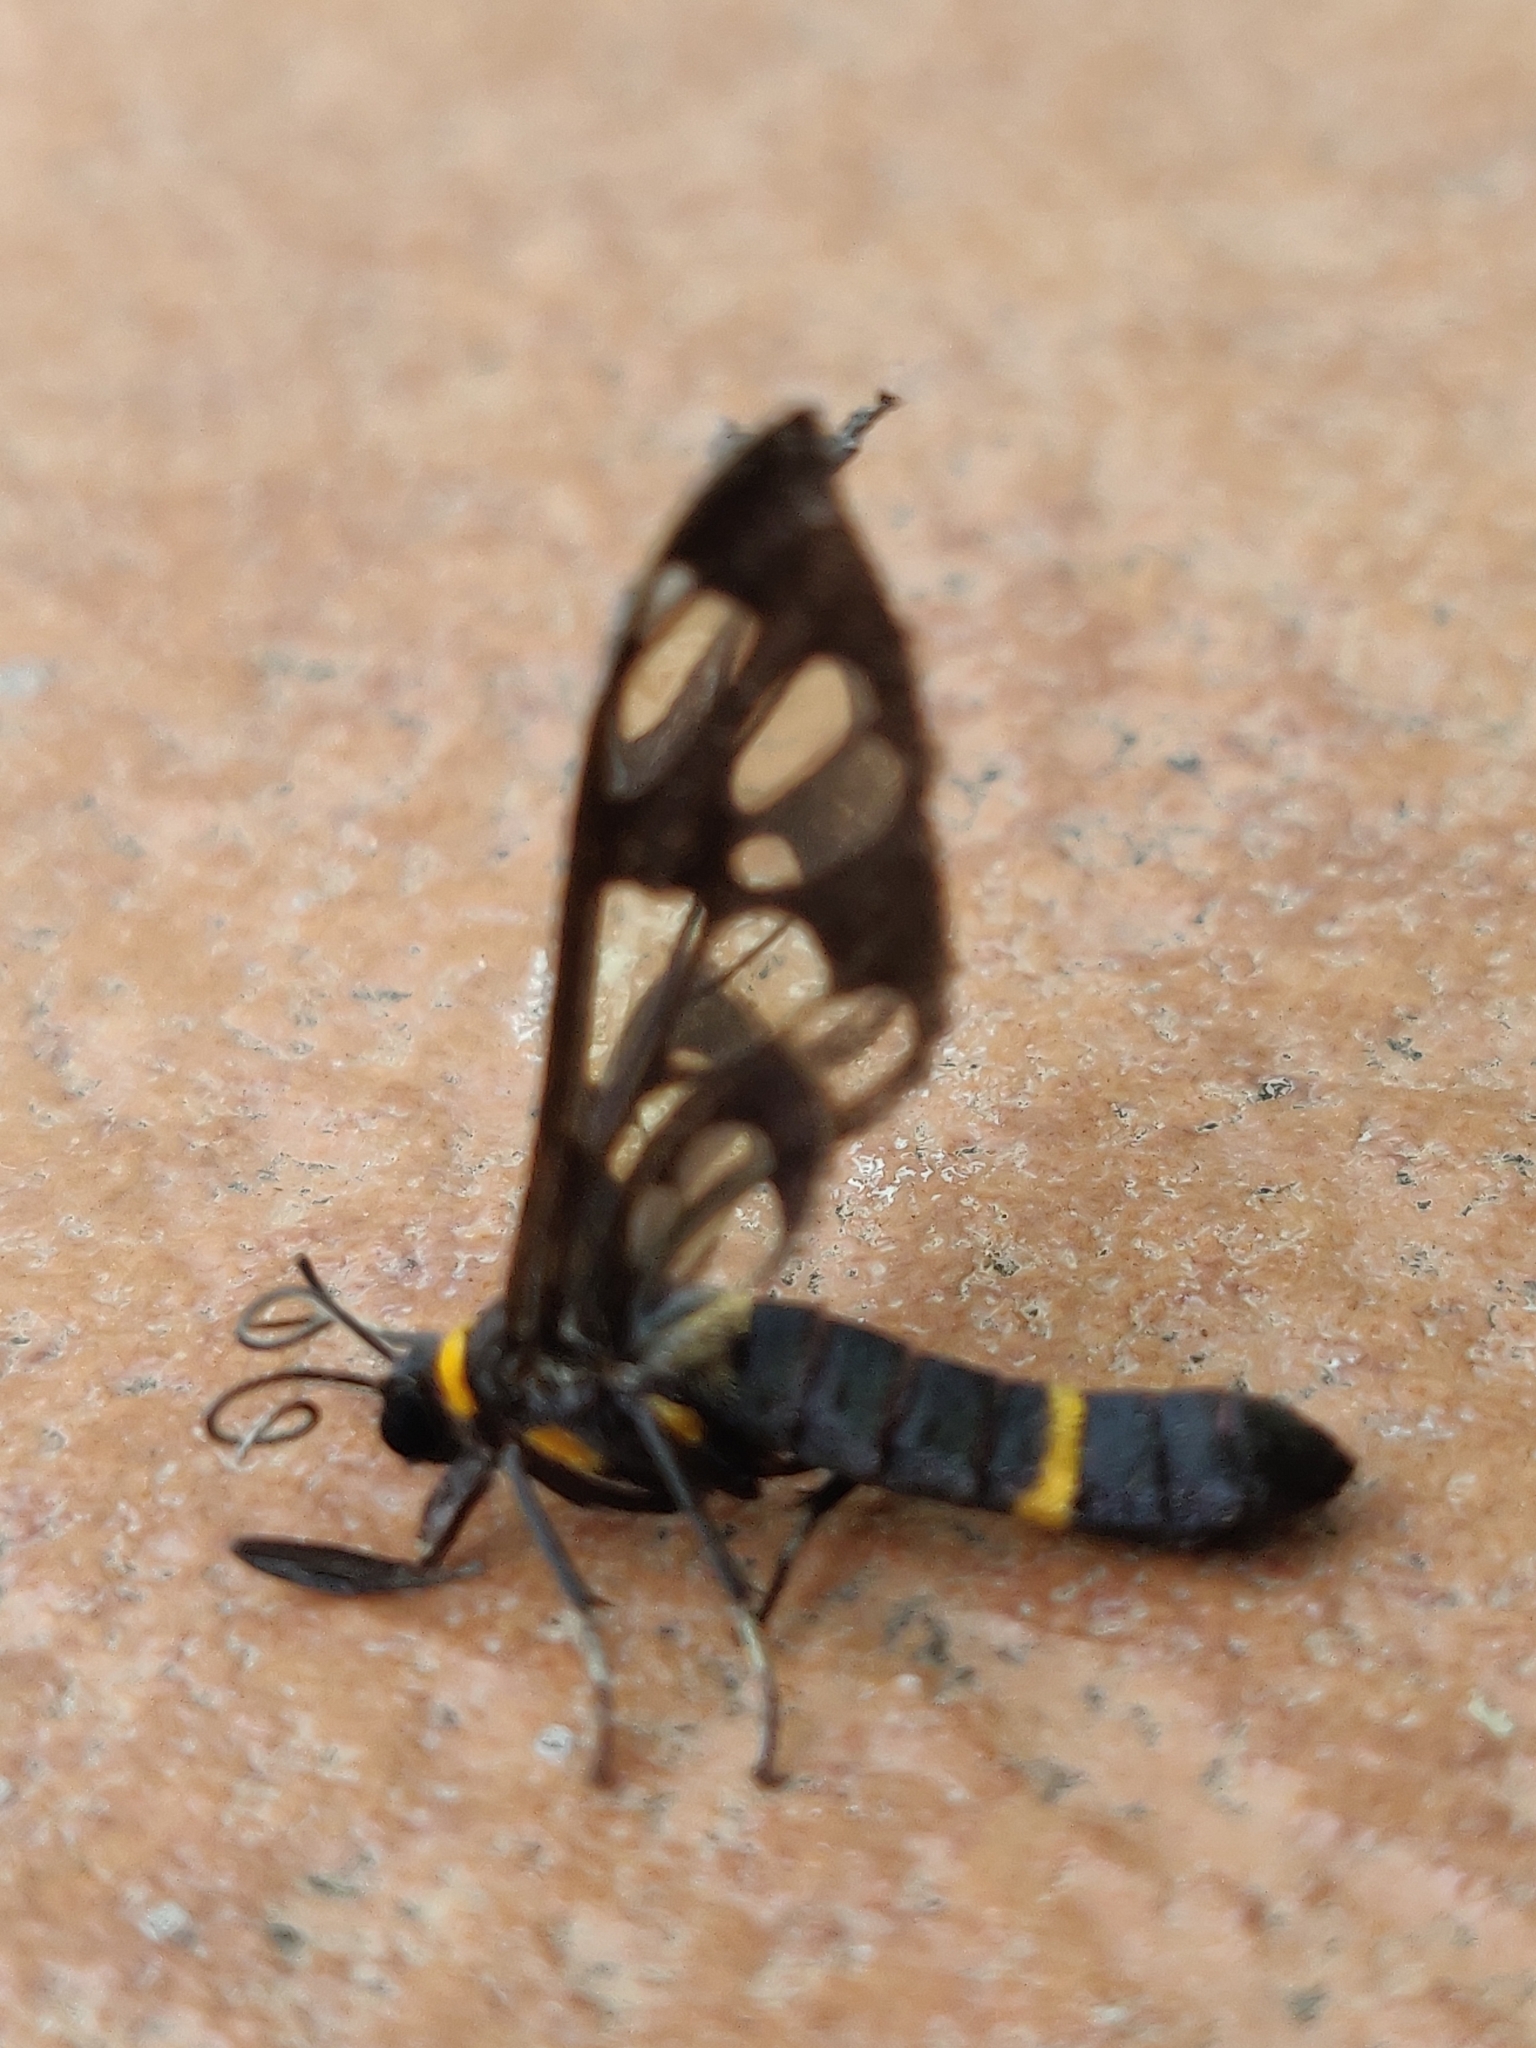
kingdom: Animalia
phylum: Arthropoda
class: Insecta
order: Lepidoptera
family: Erebidae
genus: Syntomoides
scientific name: Syntomoides imaon
